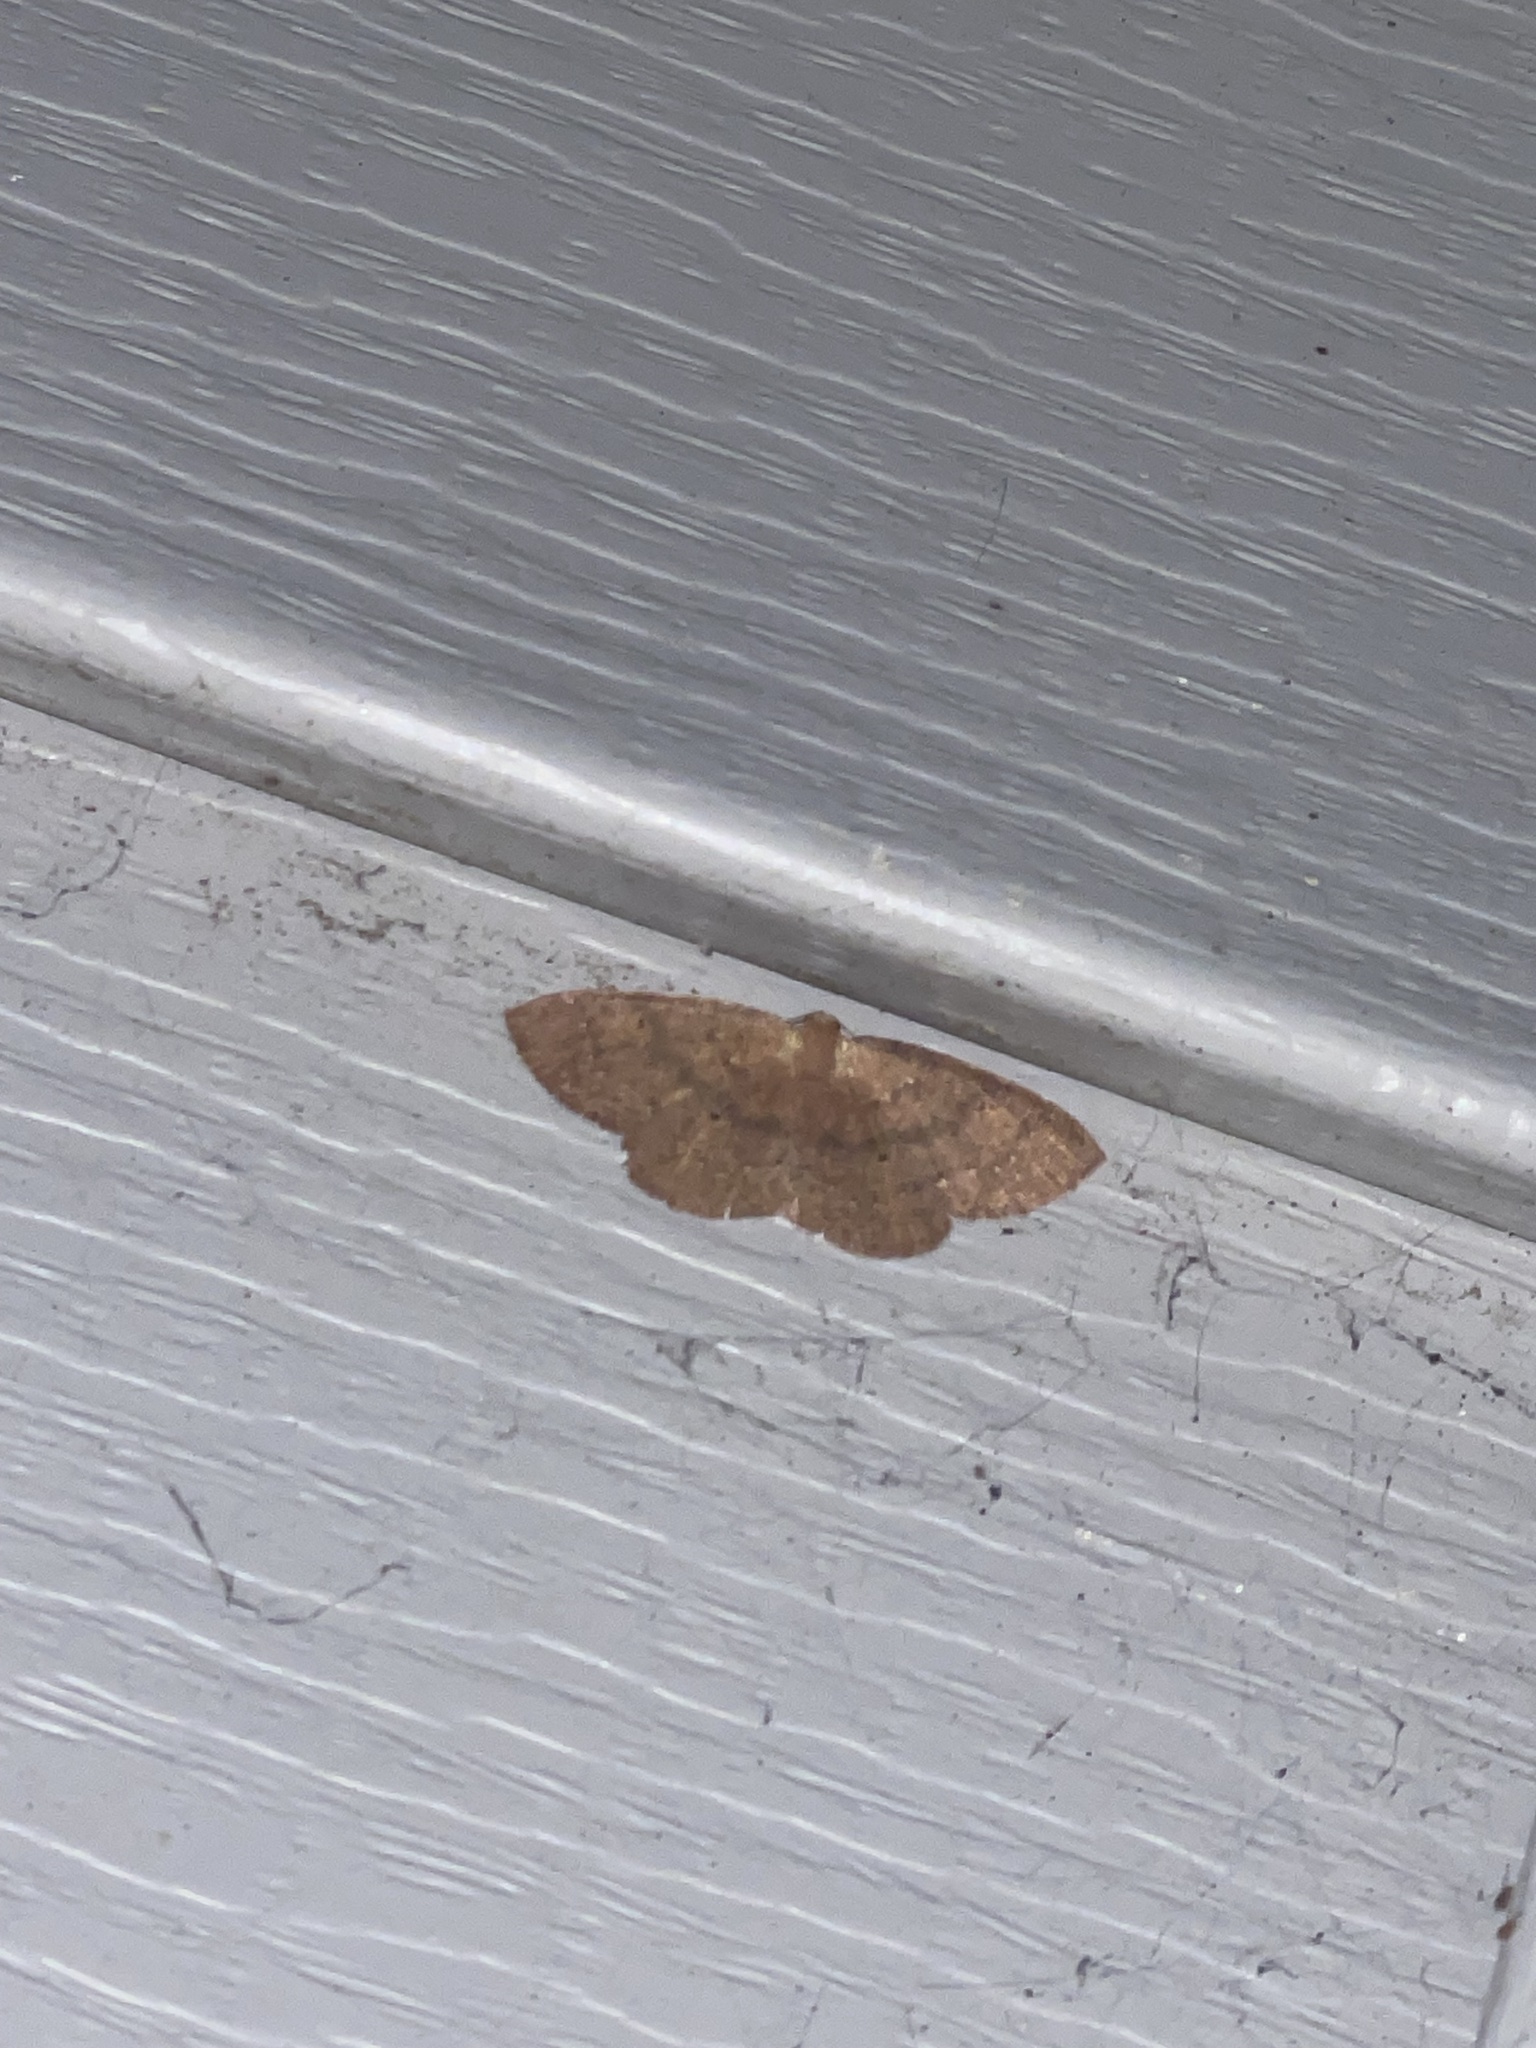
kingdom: Animalia
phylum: Arthropoda
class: Insecta
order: Lepidoptera
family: Geometridae
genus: Ilexia
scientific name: Ilexia intractata
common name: Black-dotted ruddy moth
